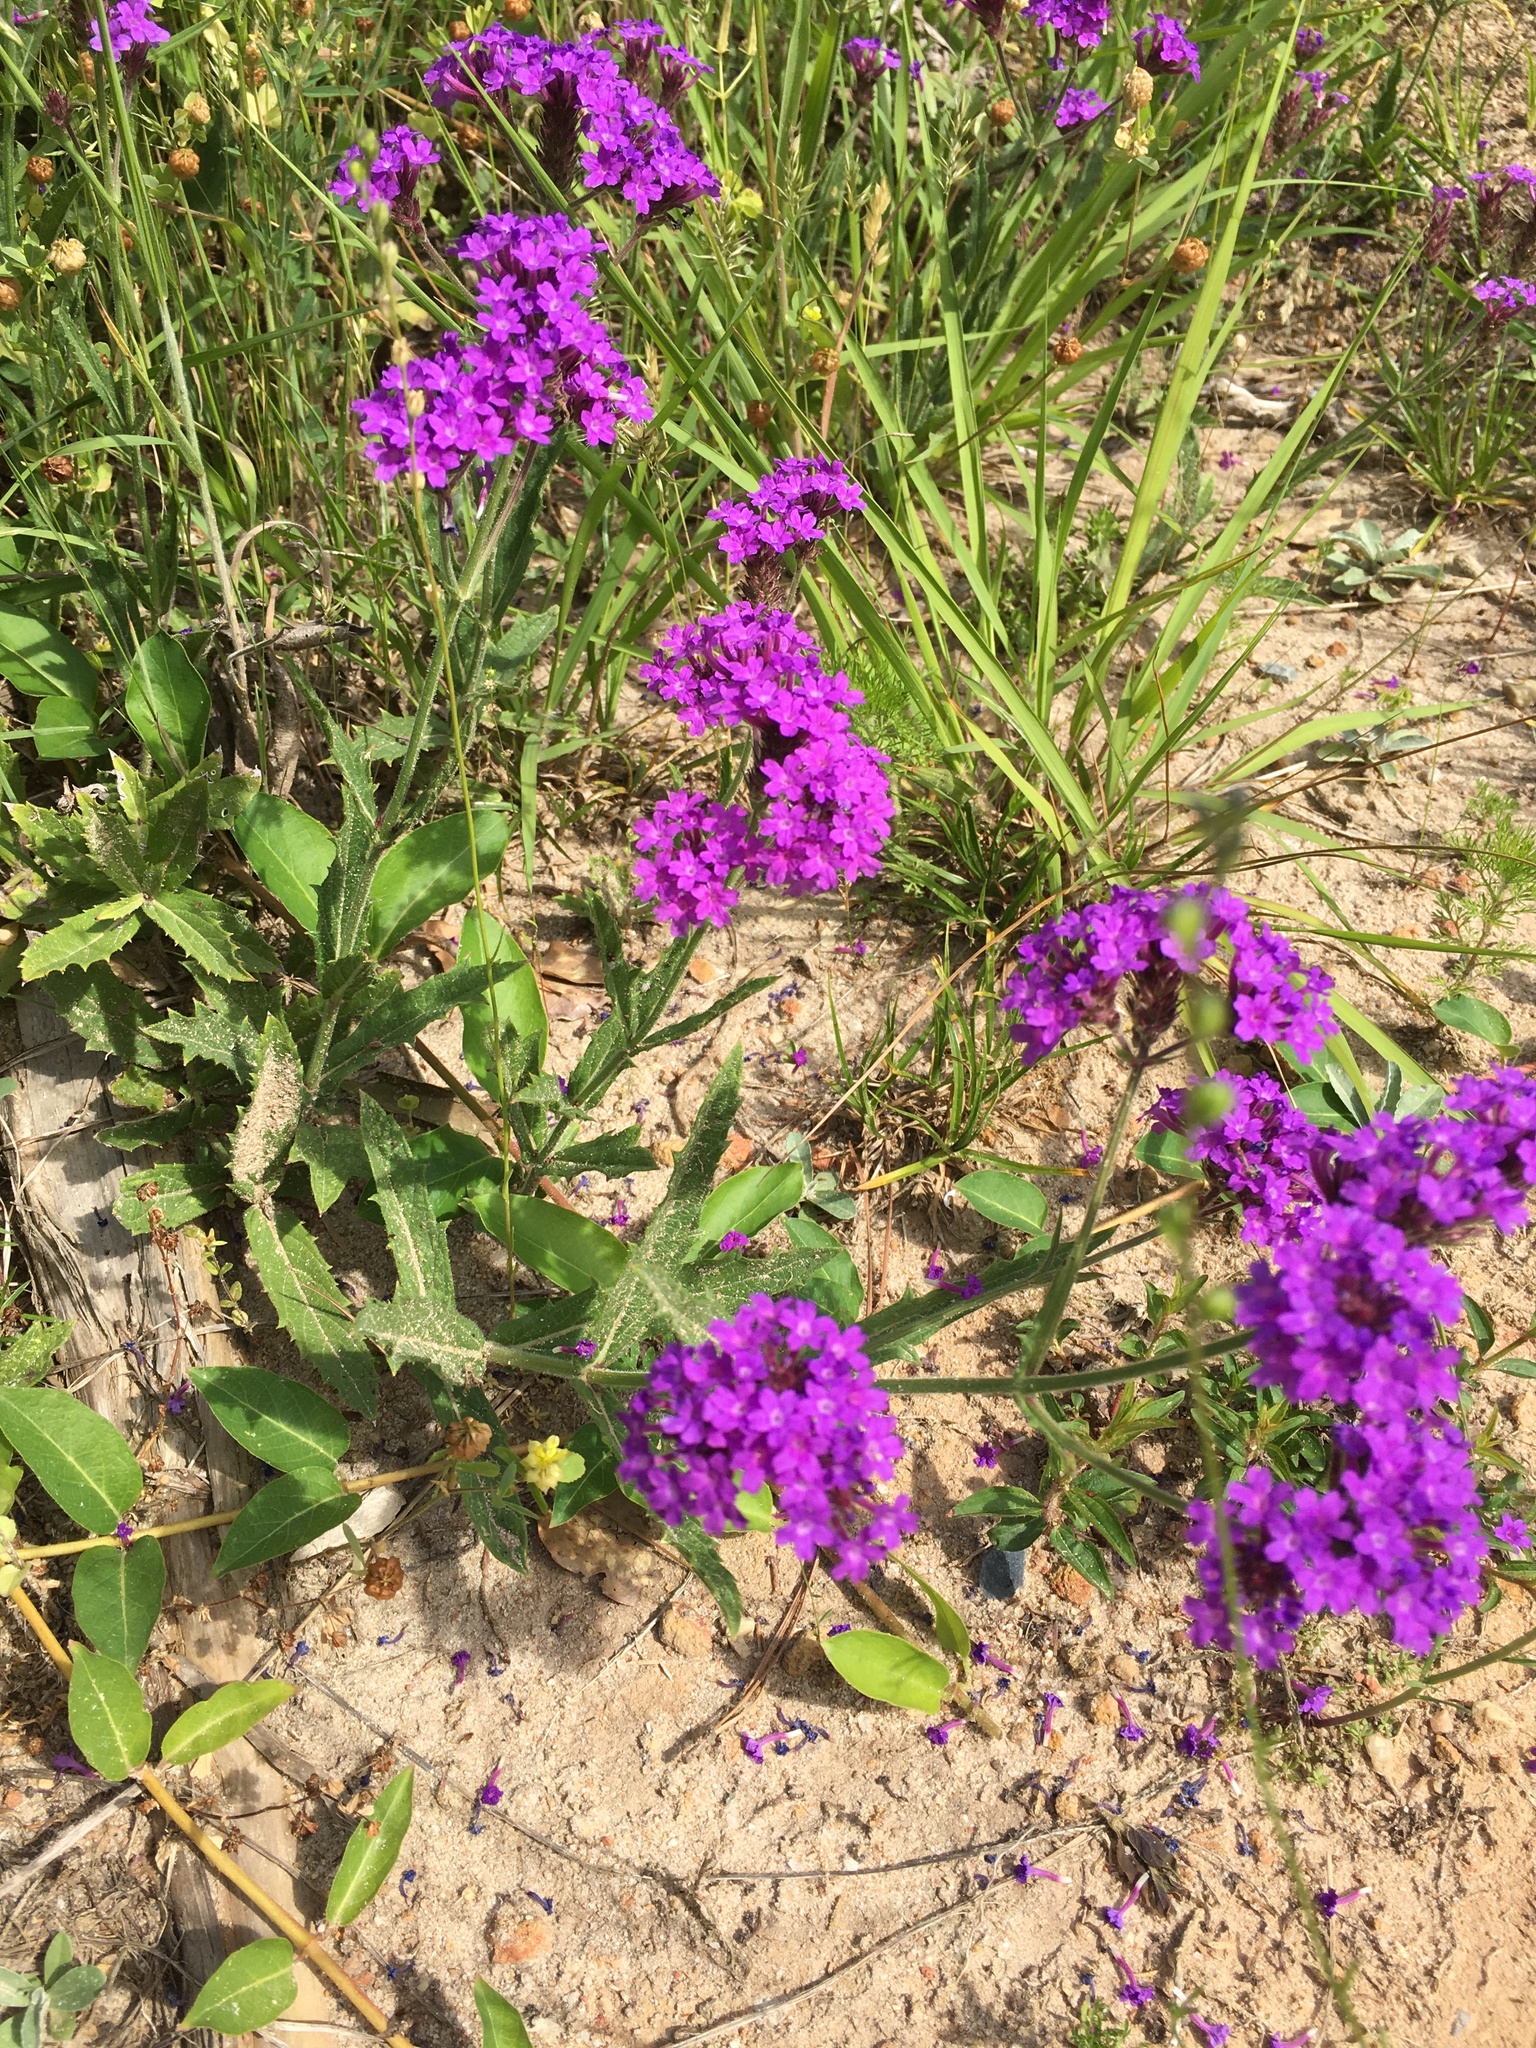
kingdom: Plantae
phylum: Tracheophyta
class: Magnoliopsida
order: Lamiales
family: Verbenaceae
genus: Verbena
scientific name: Verbena rigida
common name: Slender vervain
